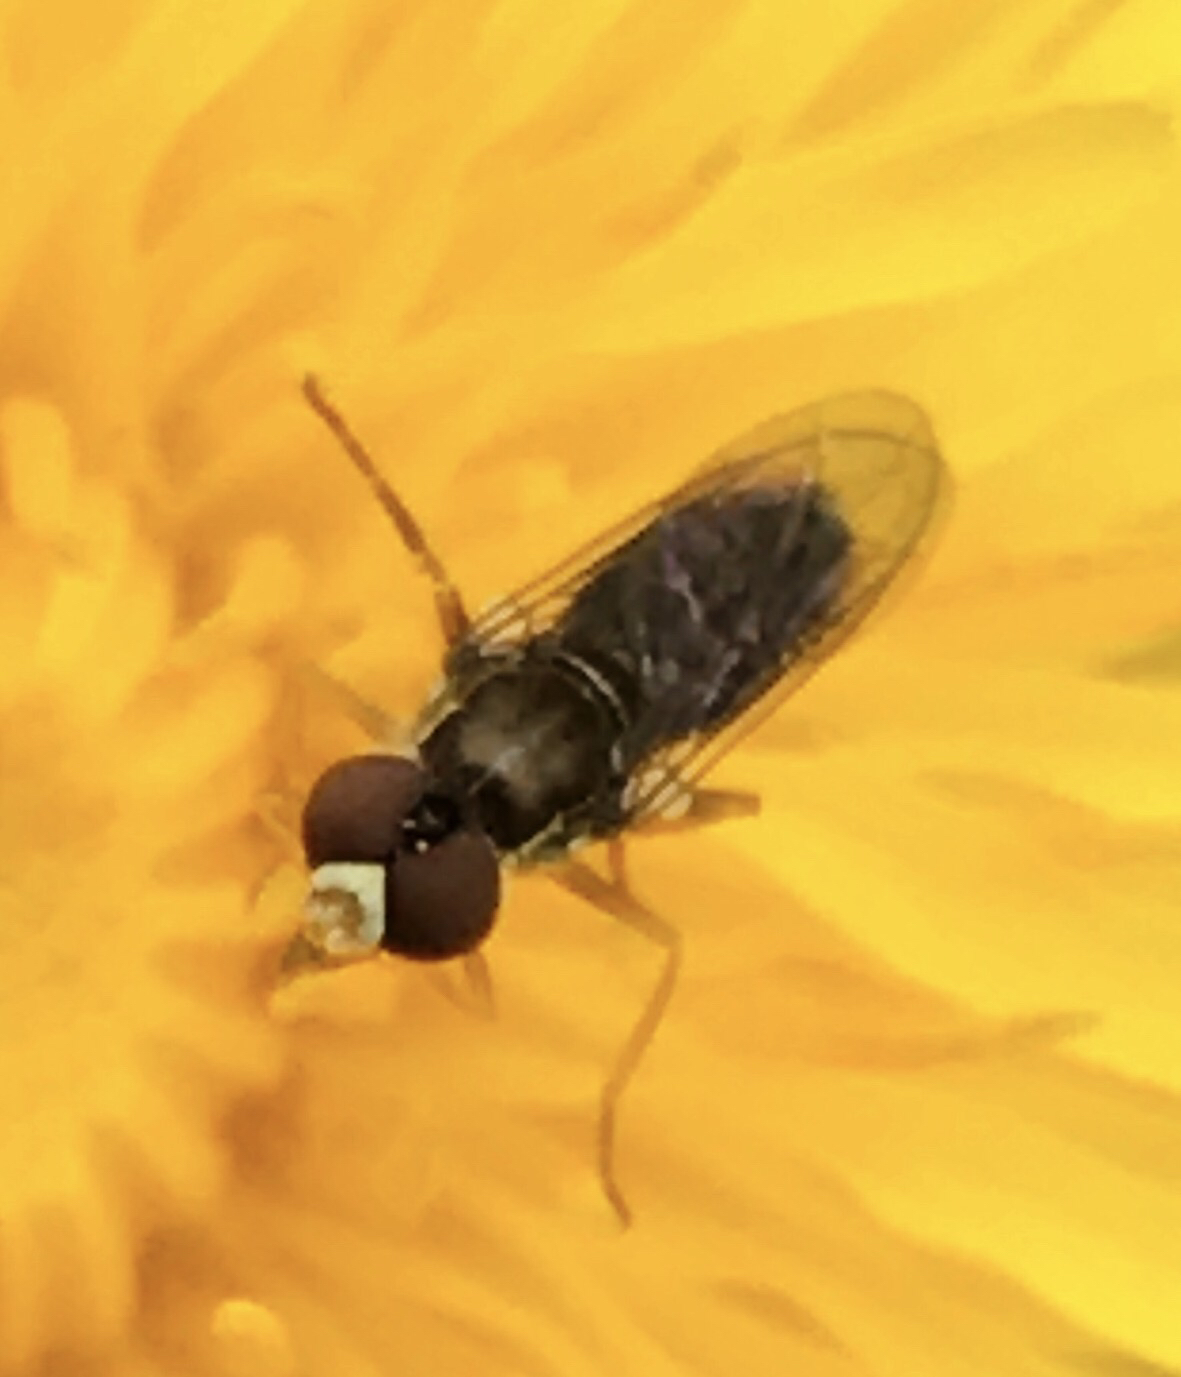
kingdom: Animalia
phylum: Arthropoda
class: Insecta
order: Diptera
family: Syrphidae
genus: Toxomerus
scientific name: Toxomerus marginatus
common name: Syrphid fly
